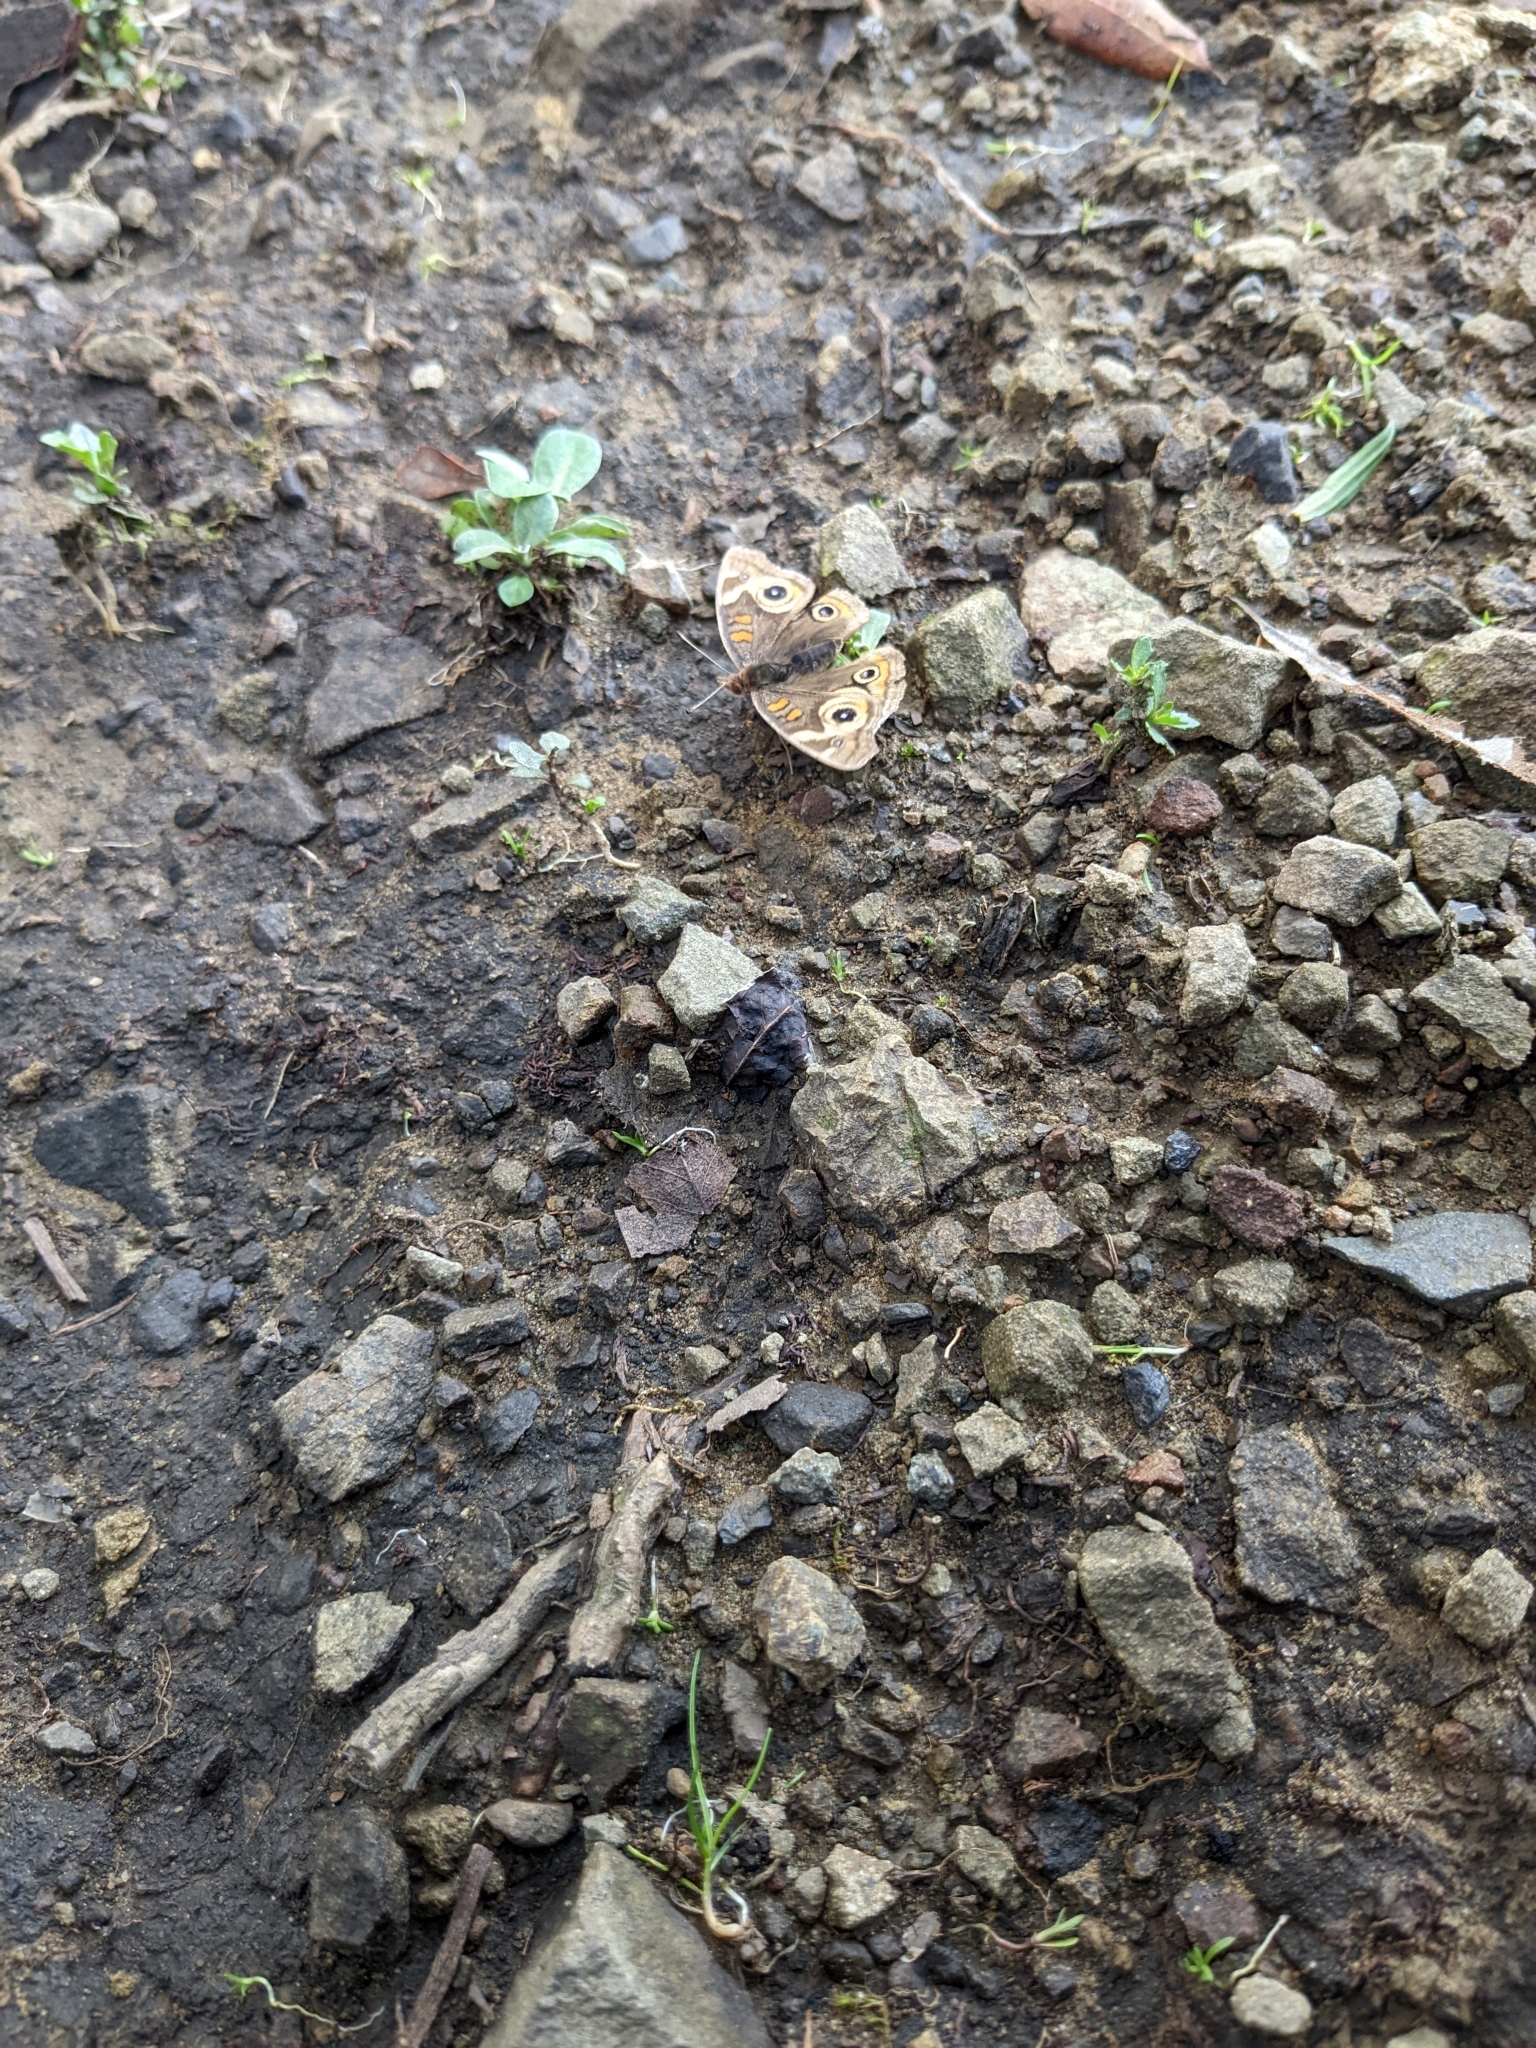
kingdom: Animalia
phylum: Arthropoda
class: Insecta
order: Lepidoptera
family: Nymphalidae
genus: Junonia
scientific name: Junonia grisea
